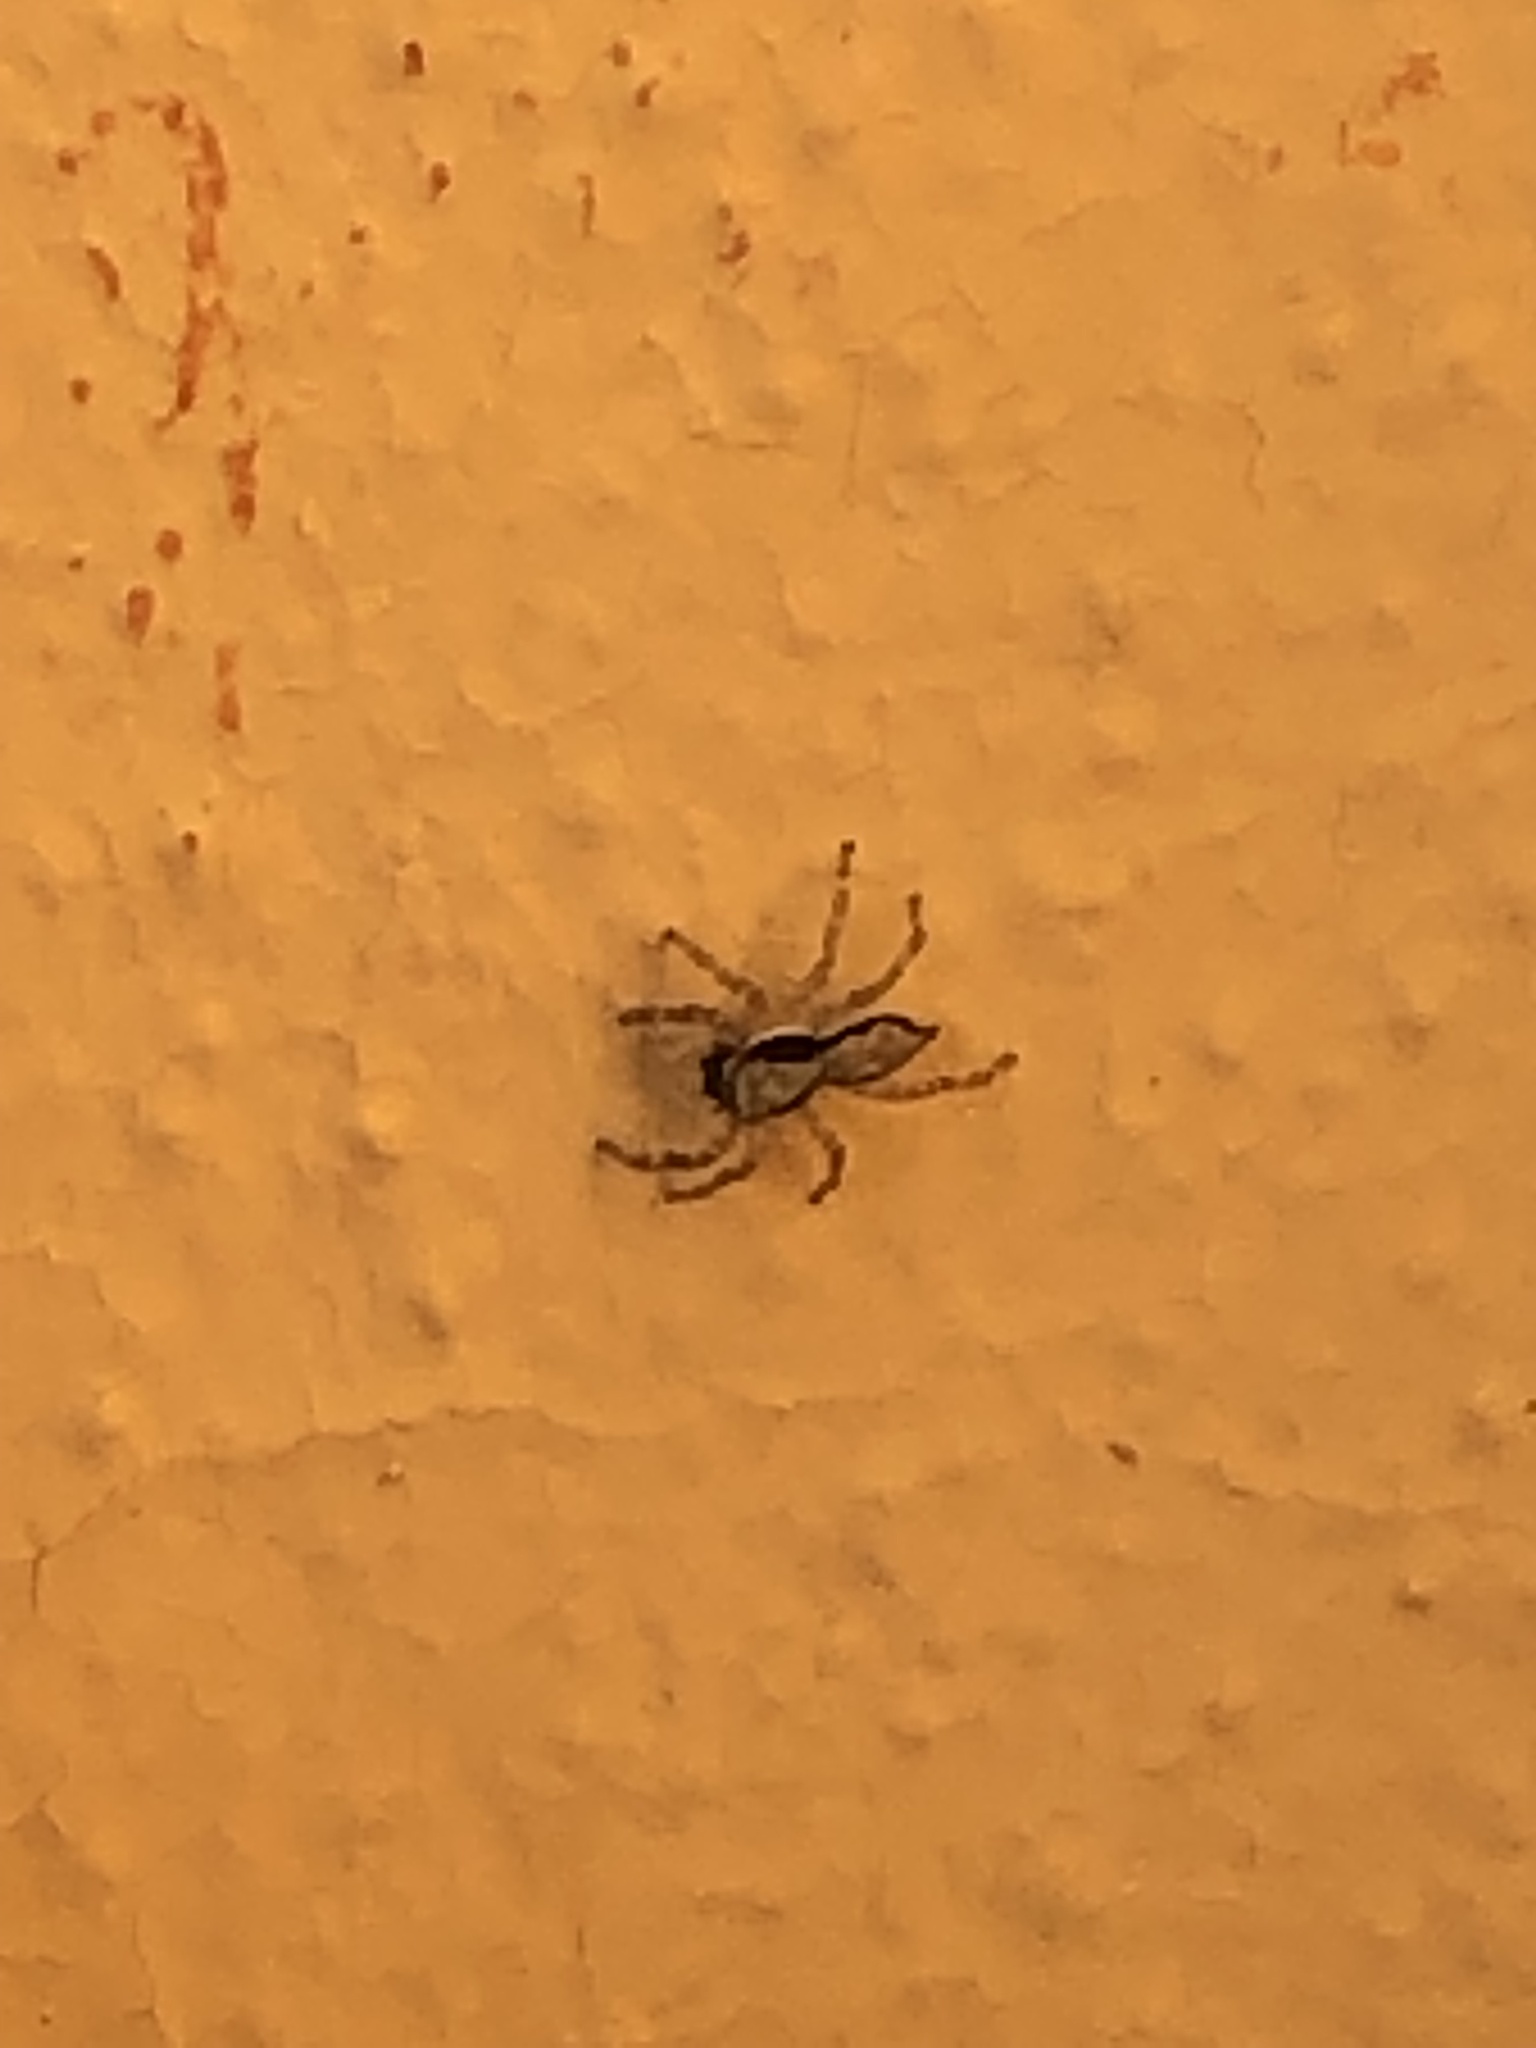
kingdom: Animalia
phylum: Arthropoda
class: Arachnida
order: Araneae
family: Salticidae
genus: Menemerus
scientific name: Menemerus bivittatus
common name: Gray wall jumper
